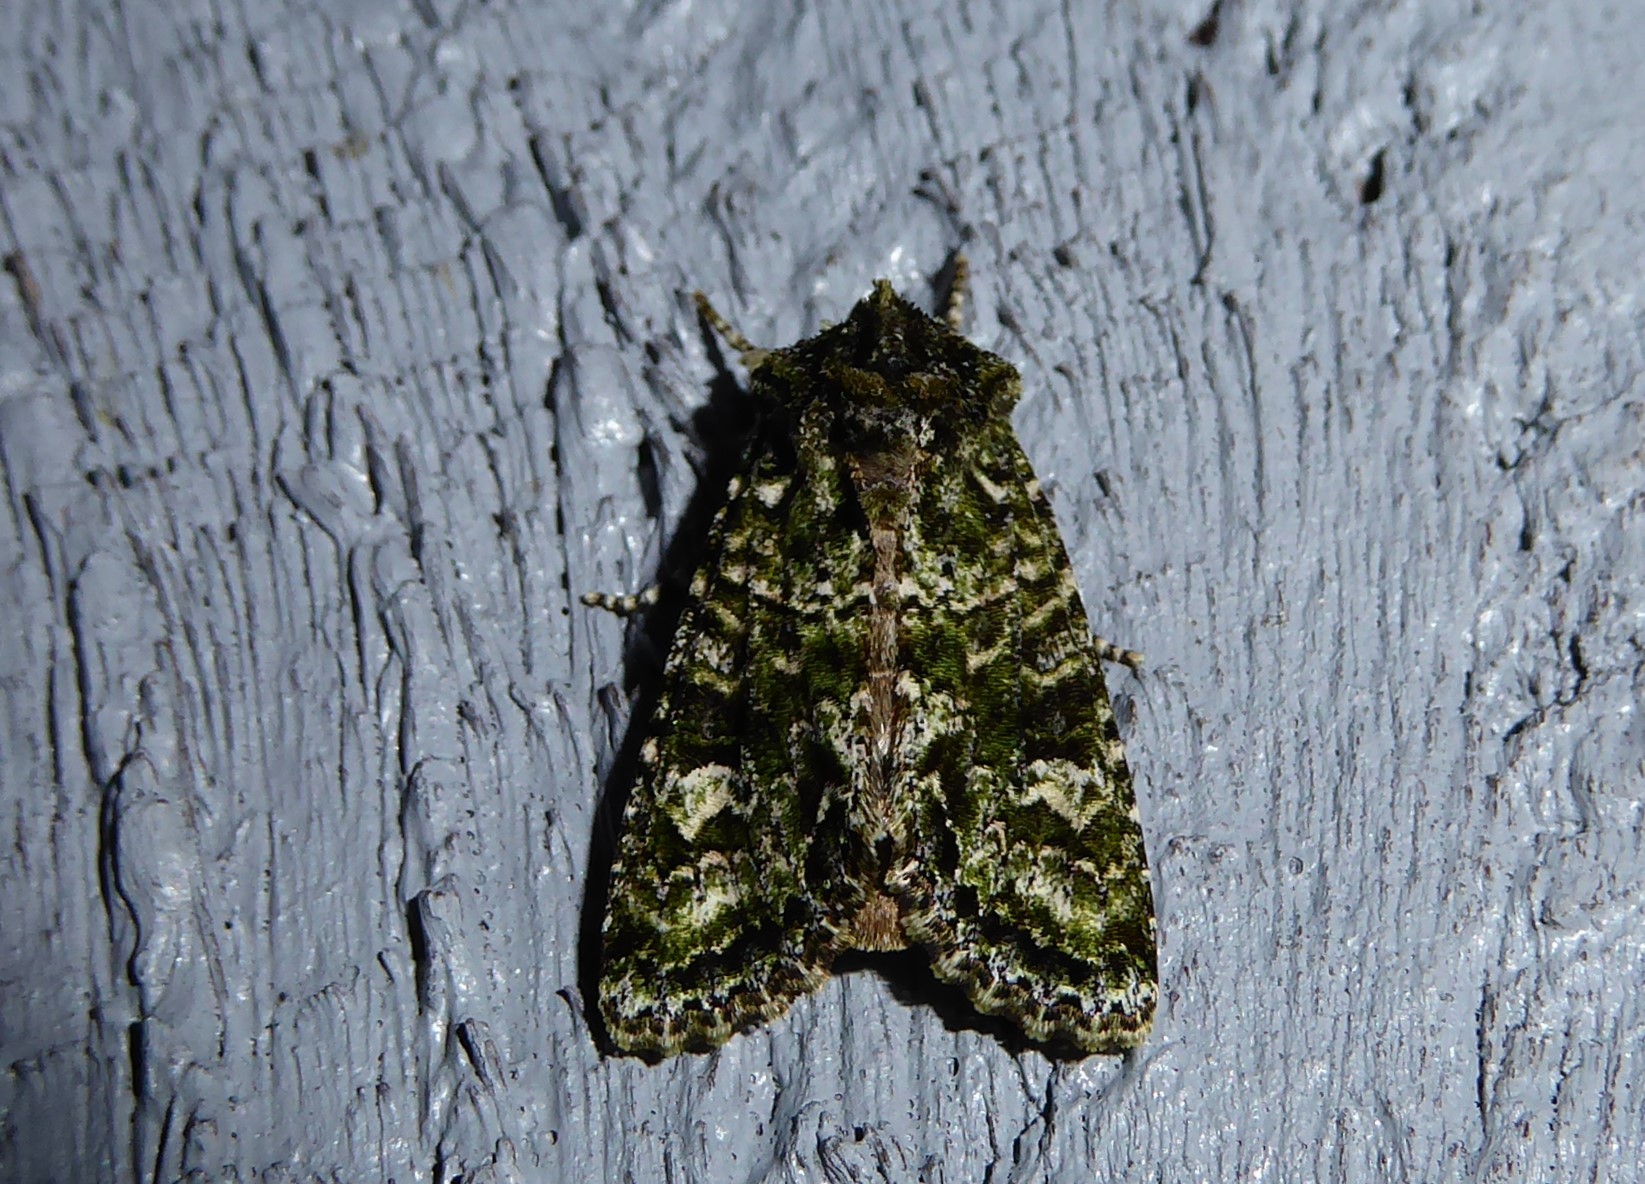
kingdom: Animalia
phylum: Arthropoda
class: Insecta
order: Lepidoptera
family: Noctuidae
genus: Ichneutica
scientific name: Ichneutica
